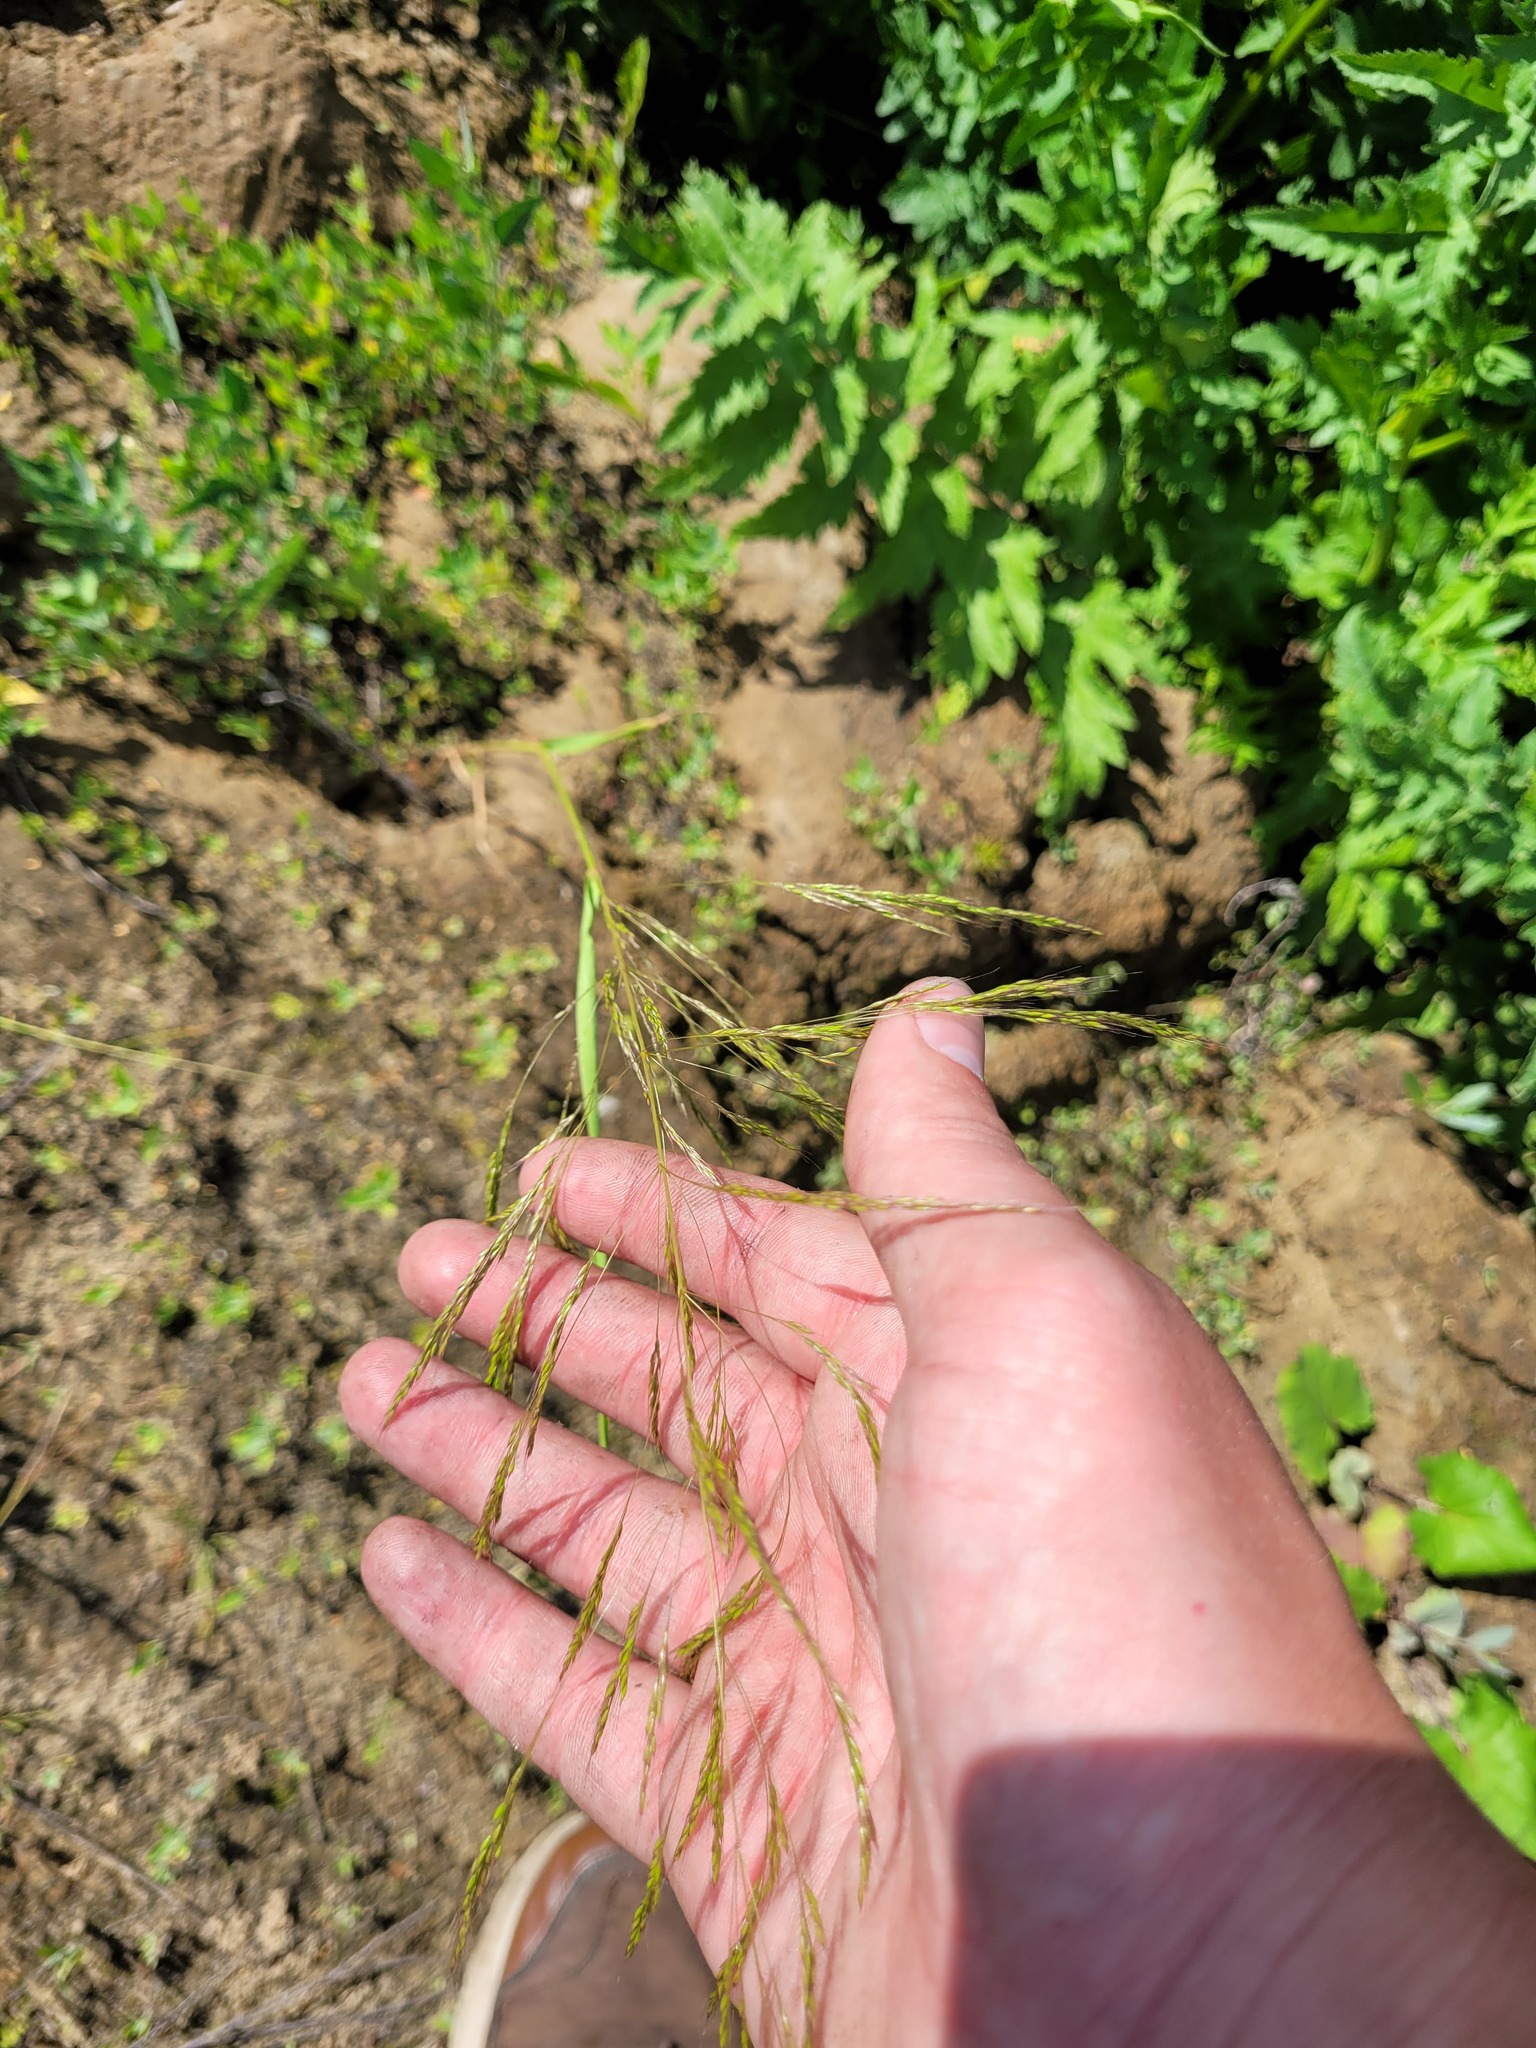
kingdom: Plantae
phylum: Tracheophyta
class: Liliopsida
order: Poales
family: Poaceae
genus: Apera
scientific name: Apera spica-venti
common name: Loose silky-bent
